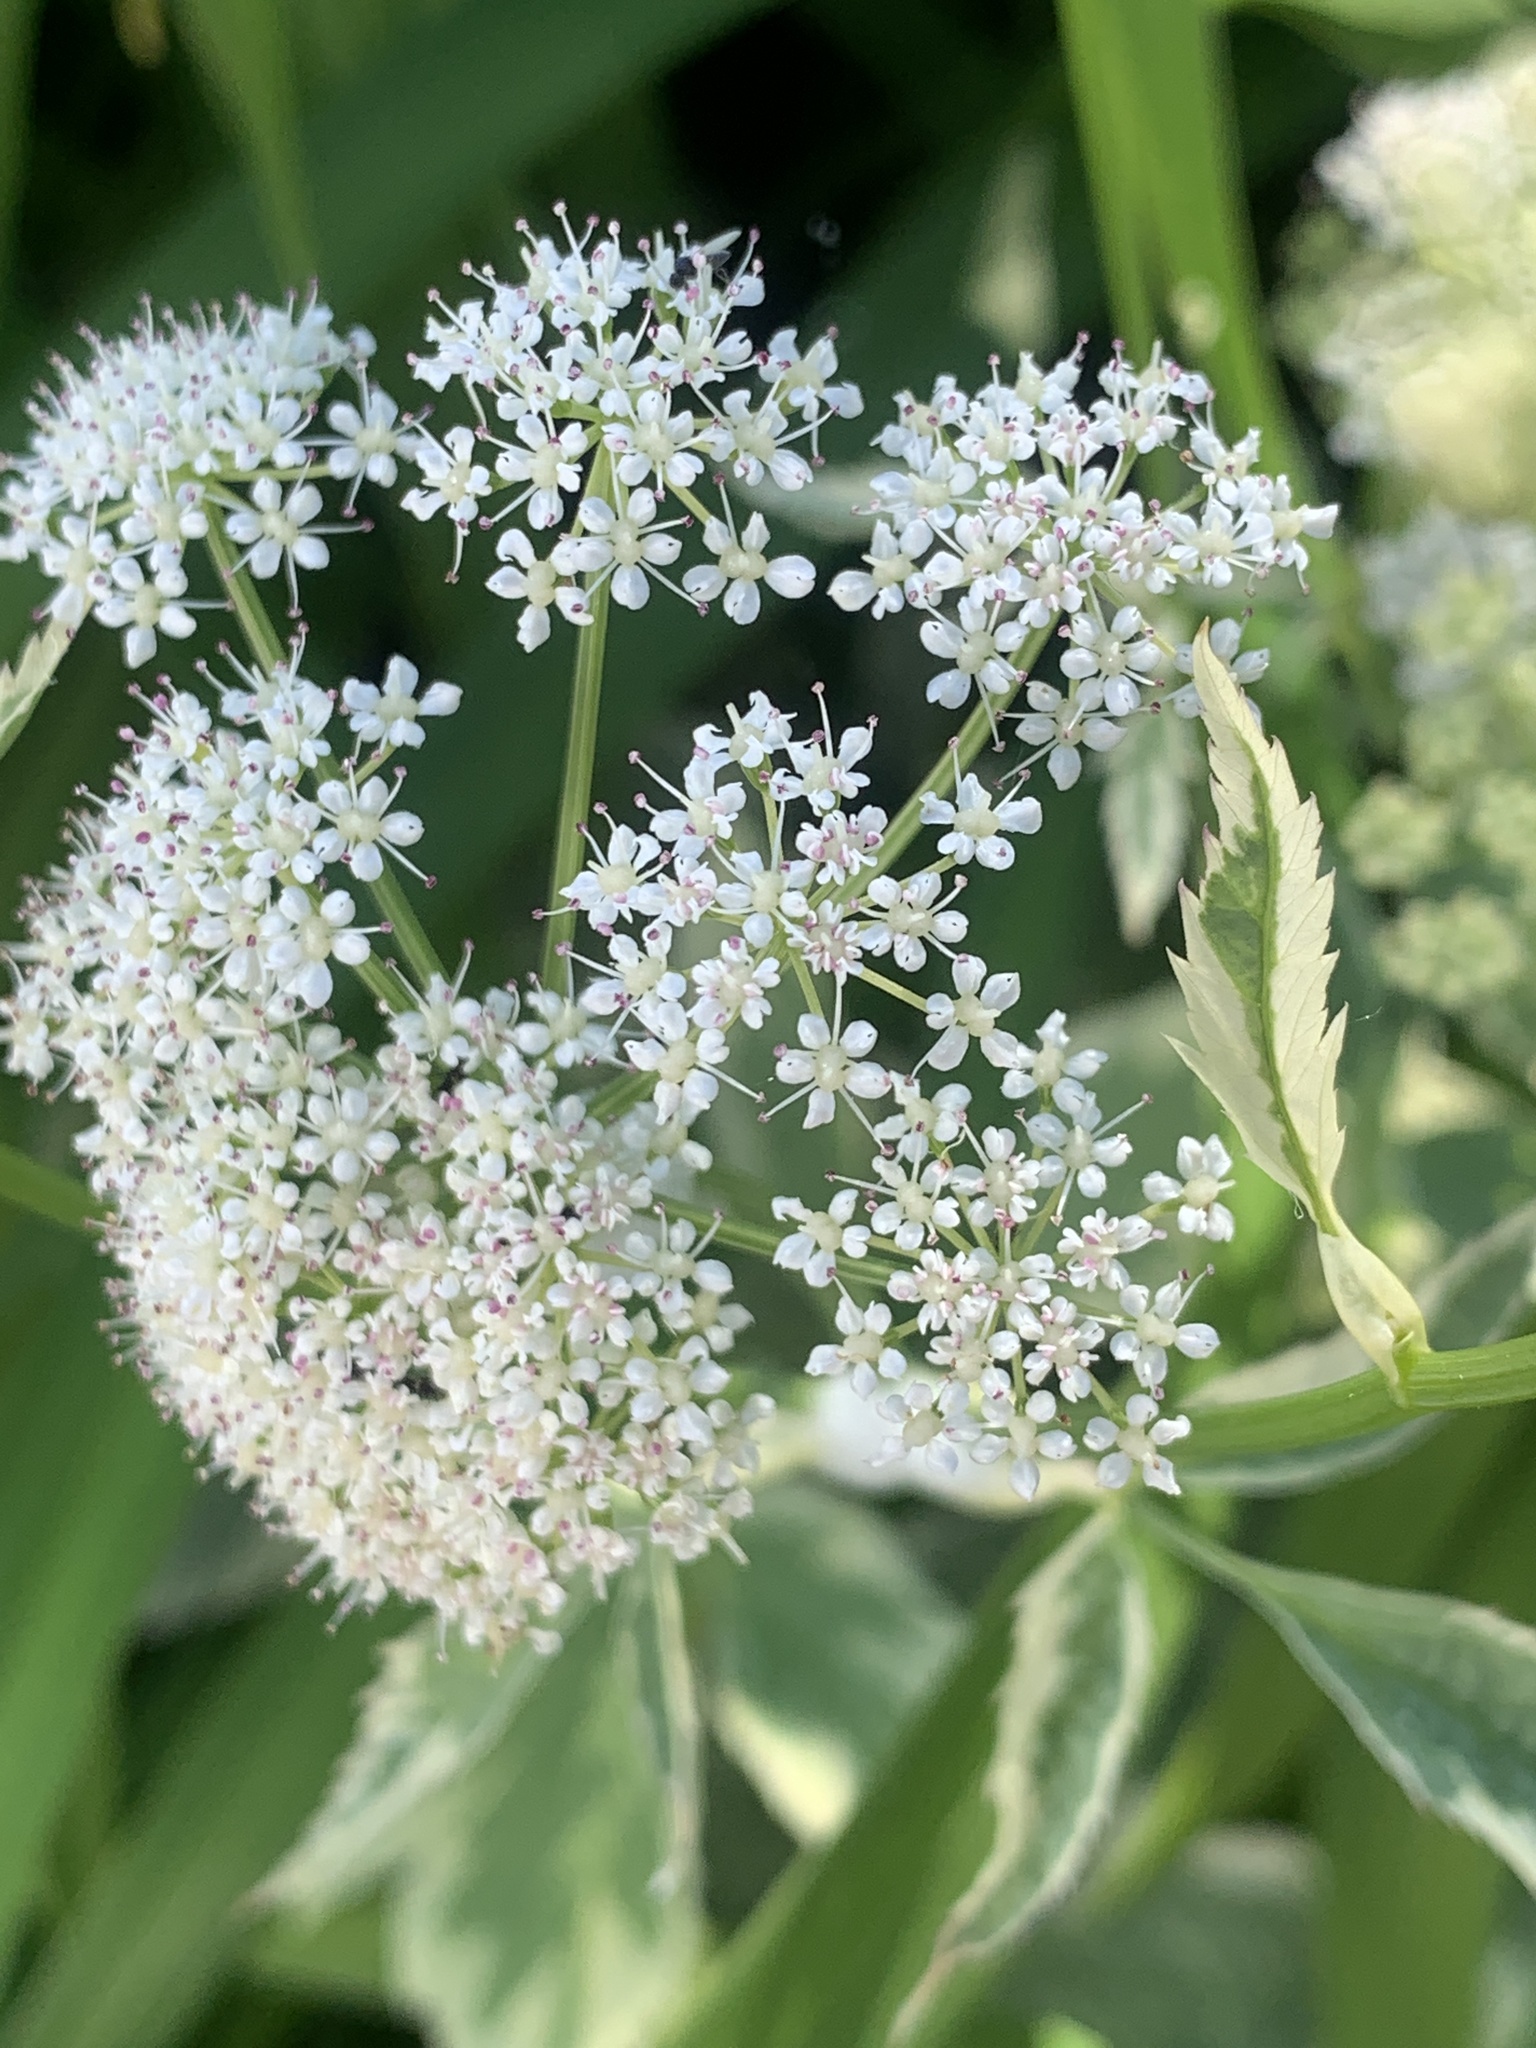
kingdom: Plantae
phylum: Tracheophyta
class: Magnoliopsida
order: Apiales
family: Apiaceae
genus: Aegopodium
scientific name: Aegopodium podagraria
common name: Ground-elder
